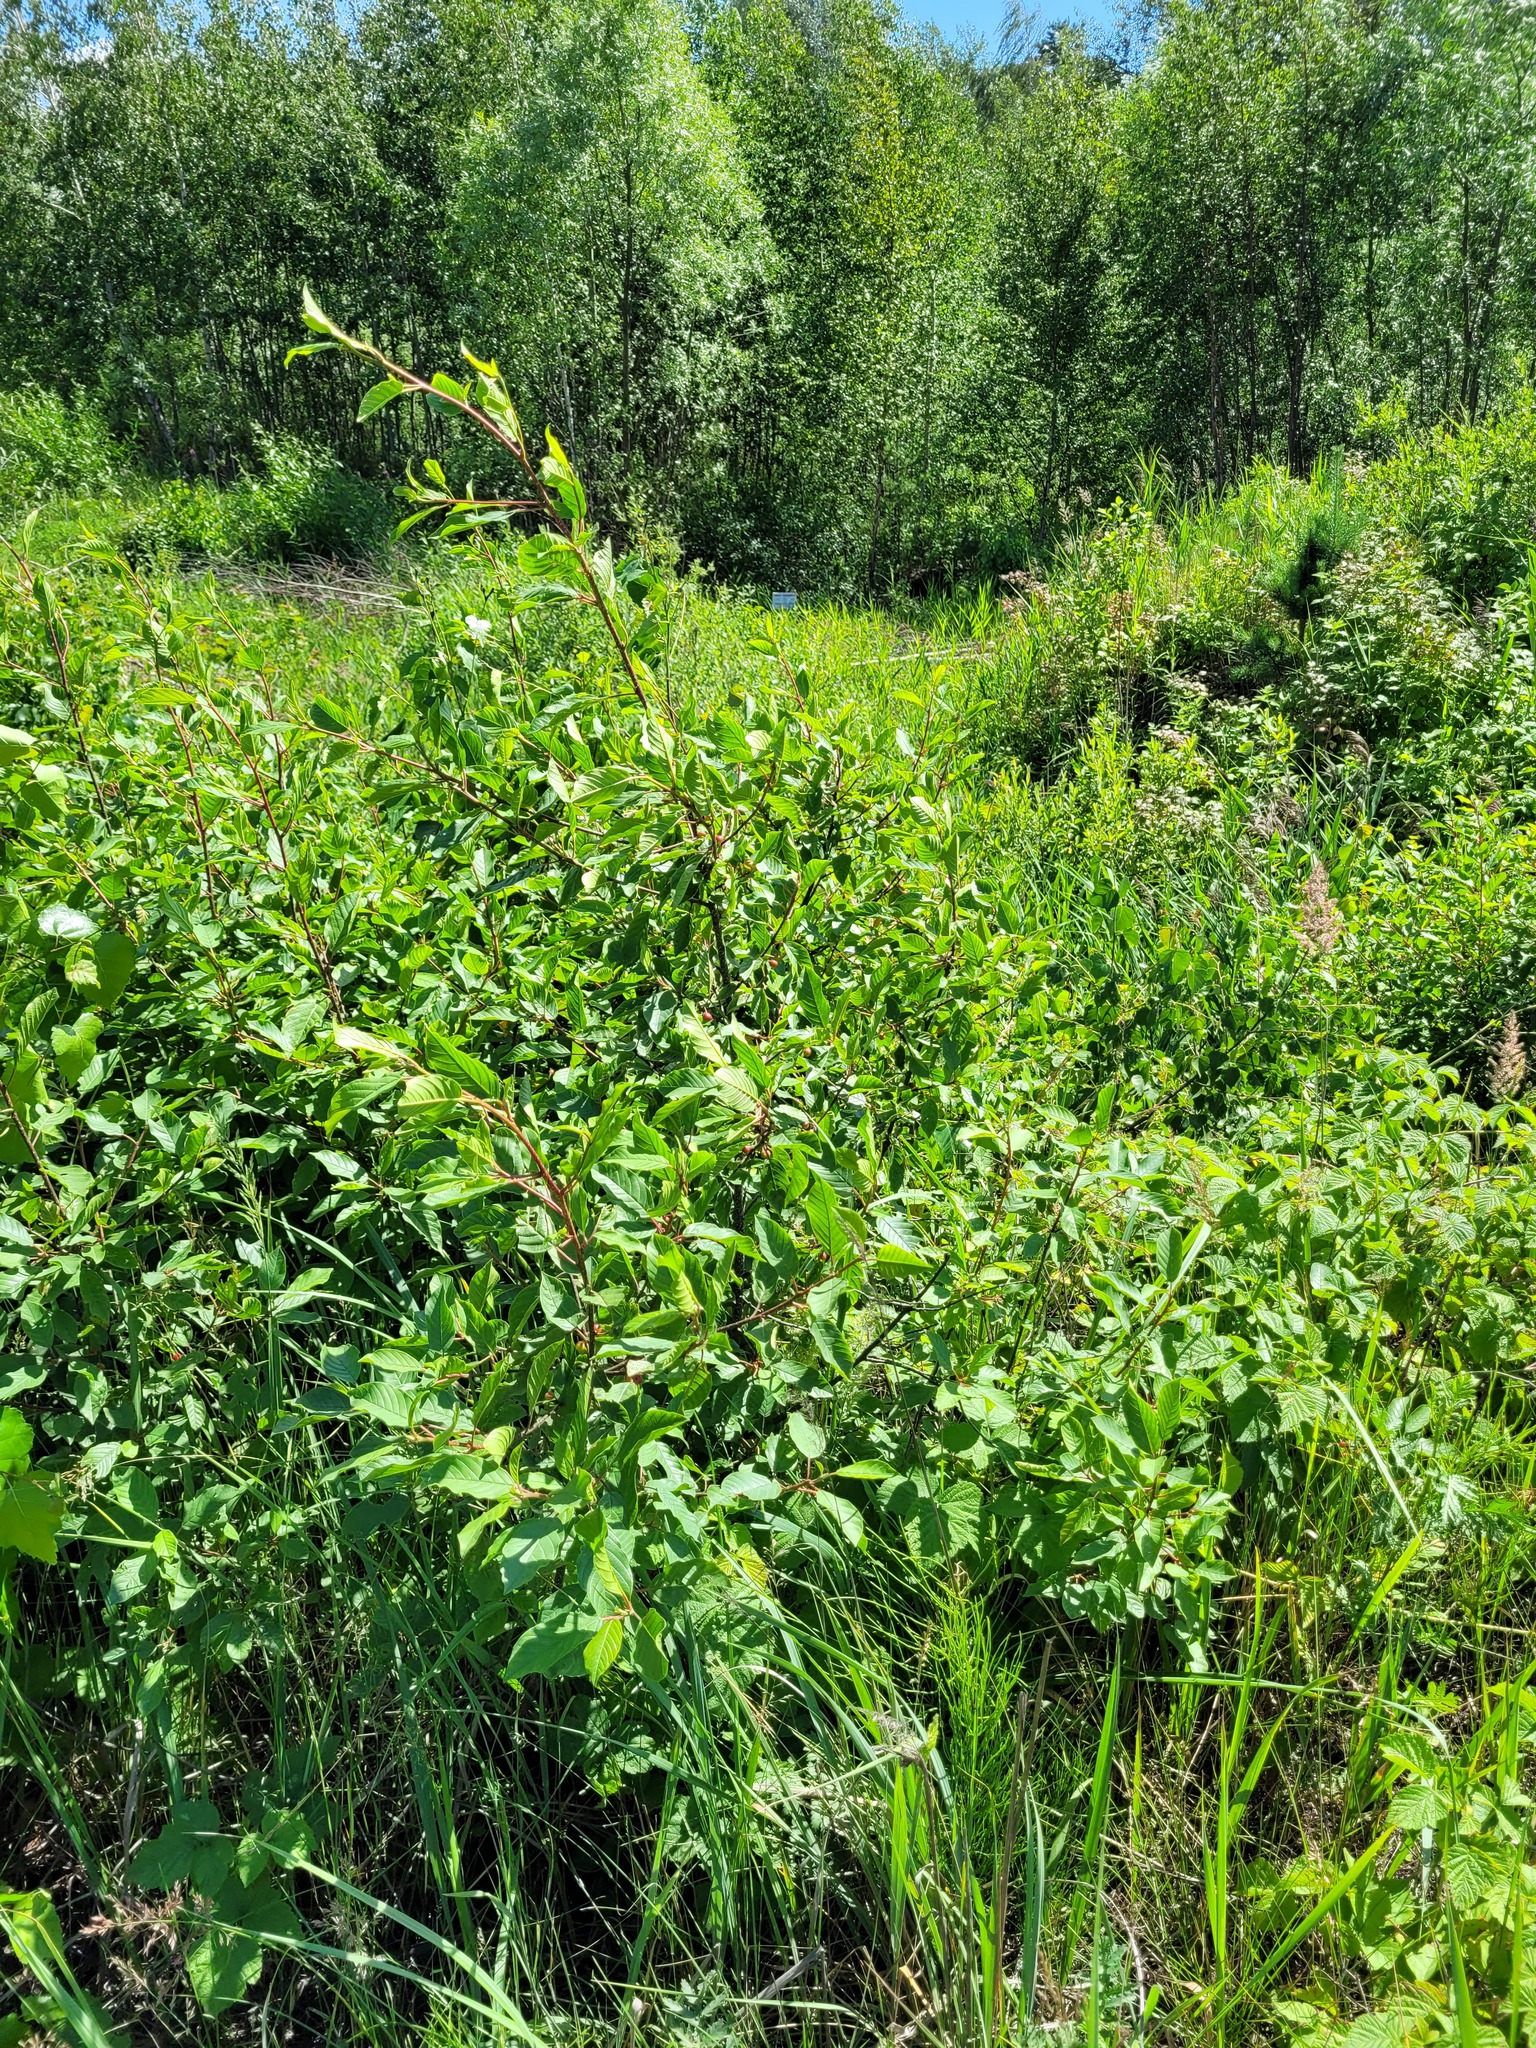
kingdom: Plantae
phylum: Tracheophyta
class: Magnoliopsida
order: Rosales
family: Rhamnaceae
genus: Frangula
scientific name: Frangula alnus
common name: Alder buckthorn
